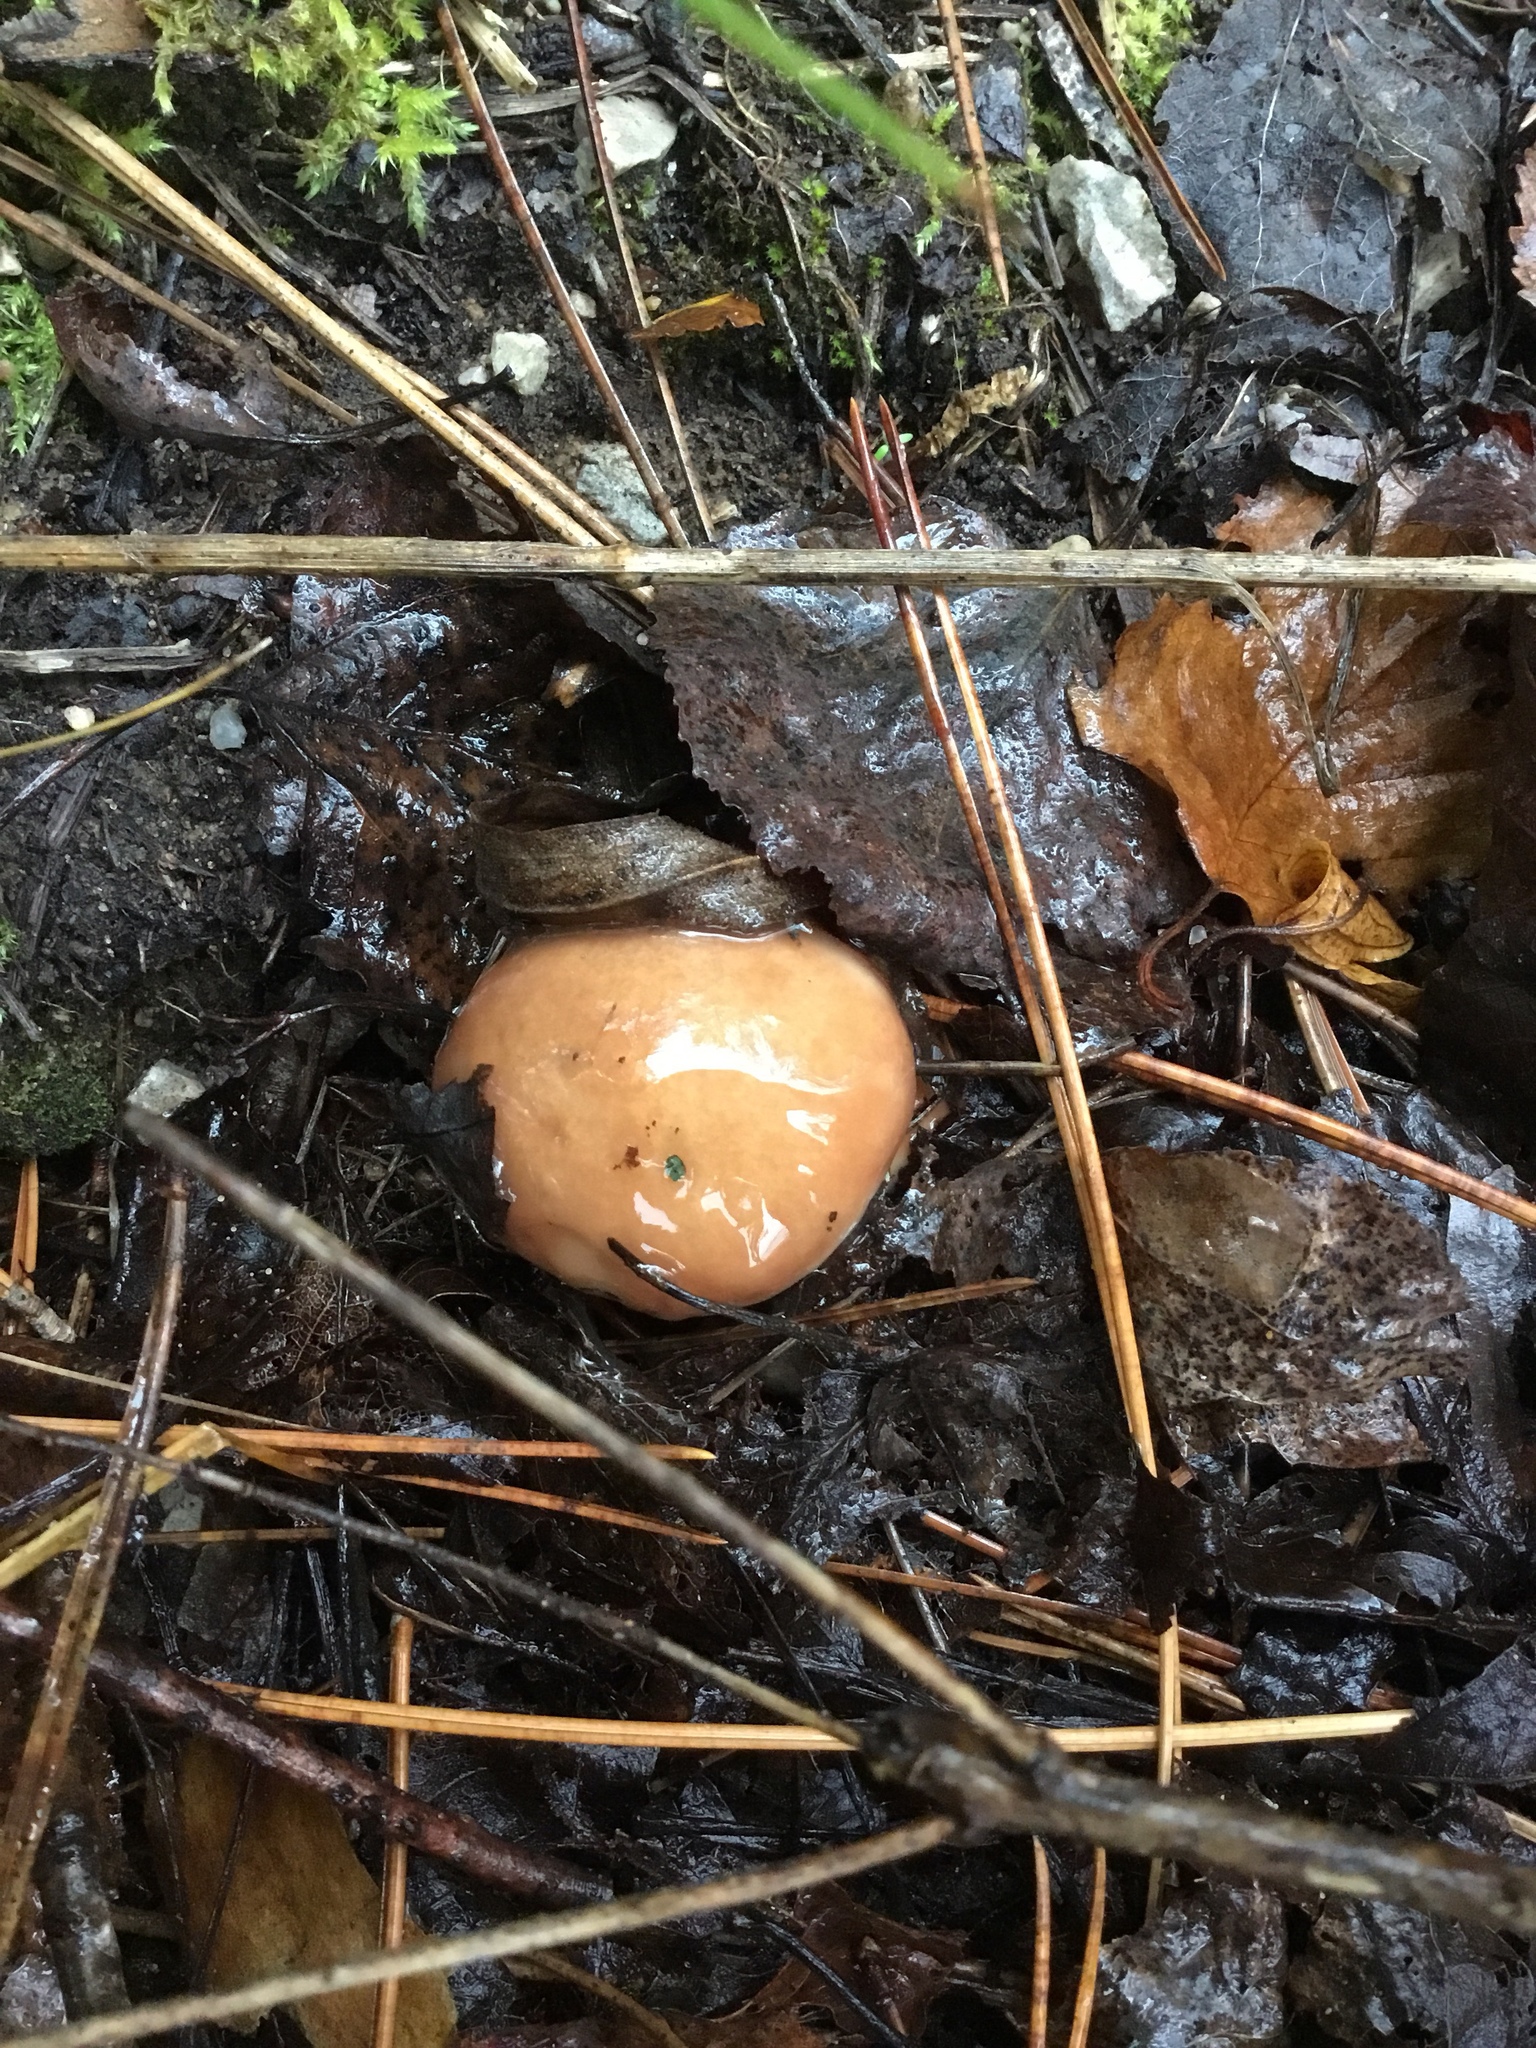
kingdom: Fungi
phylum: Basidiomycota
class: Agaricomycetes
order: Boletales
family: Suillaceae
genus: Suillus
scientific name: Suillus luteus
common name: Slippery jack
